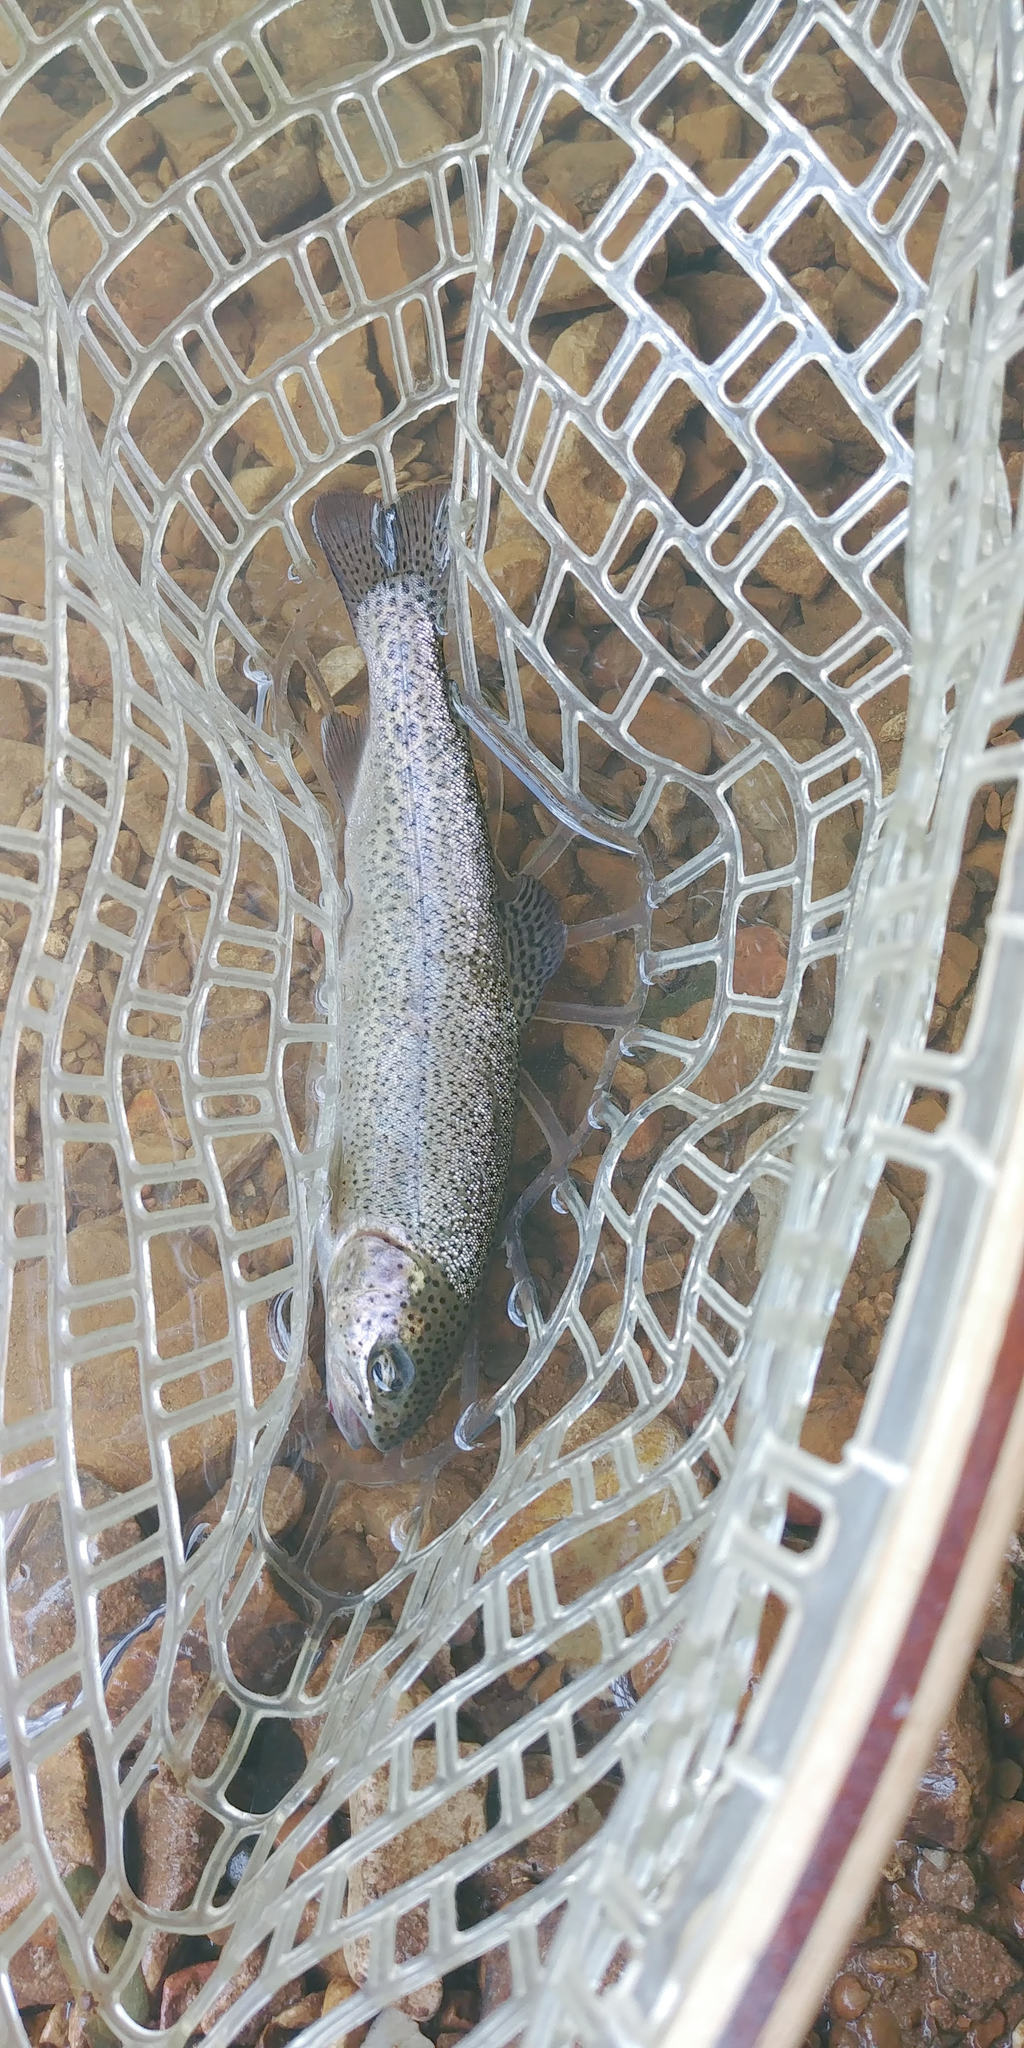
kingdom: Animalia
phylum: Chordata
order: Salmoniformes
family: Salmonidae
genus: Oncorhynchus
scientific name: Oncorhynchus mykiss
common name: Rainbow trout
